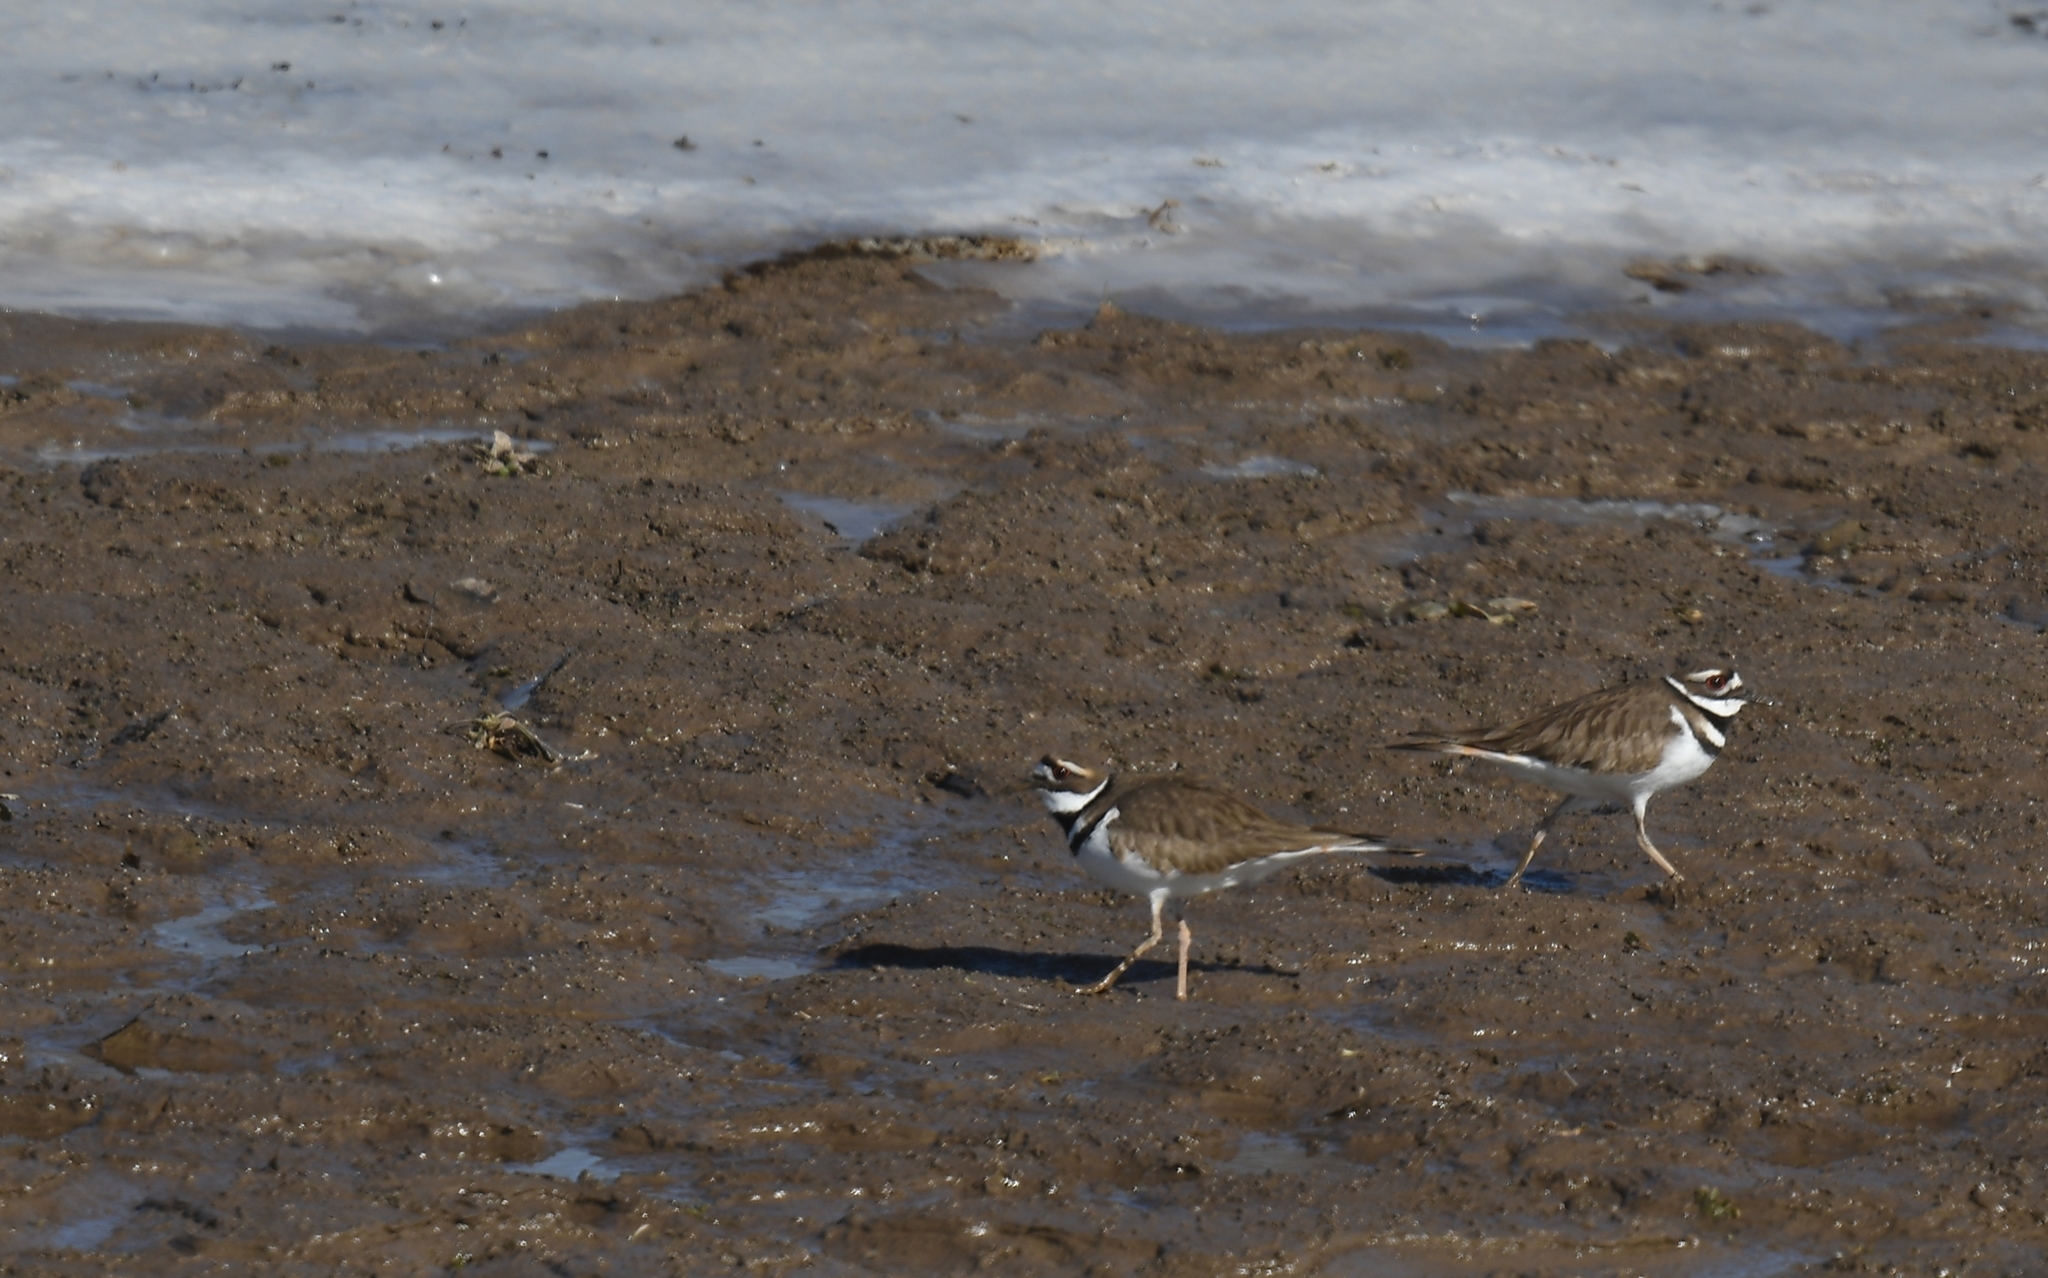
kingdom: Animalia
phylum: Chordata
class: Aves
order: Charadriiformes
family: Charadriidae
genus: Charadrius
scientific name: Charadrius vociferus
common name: Killdeer
